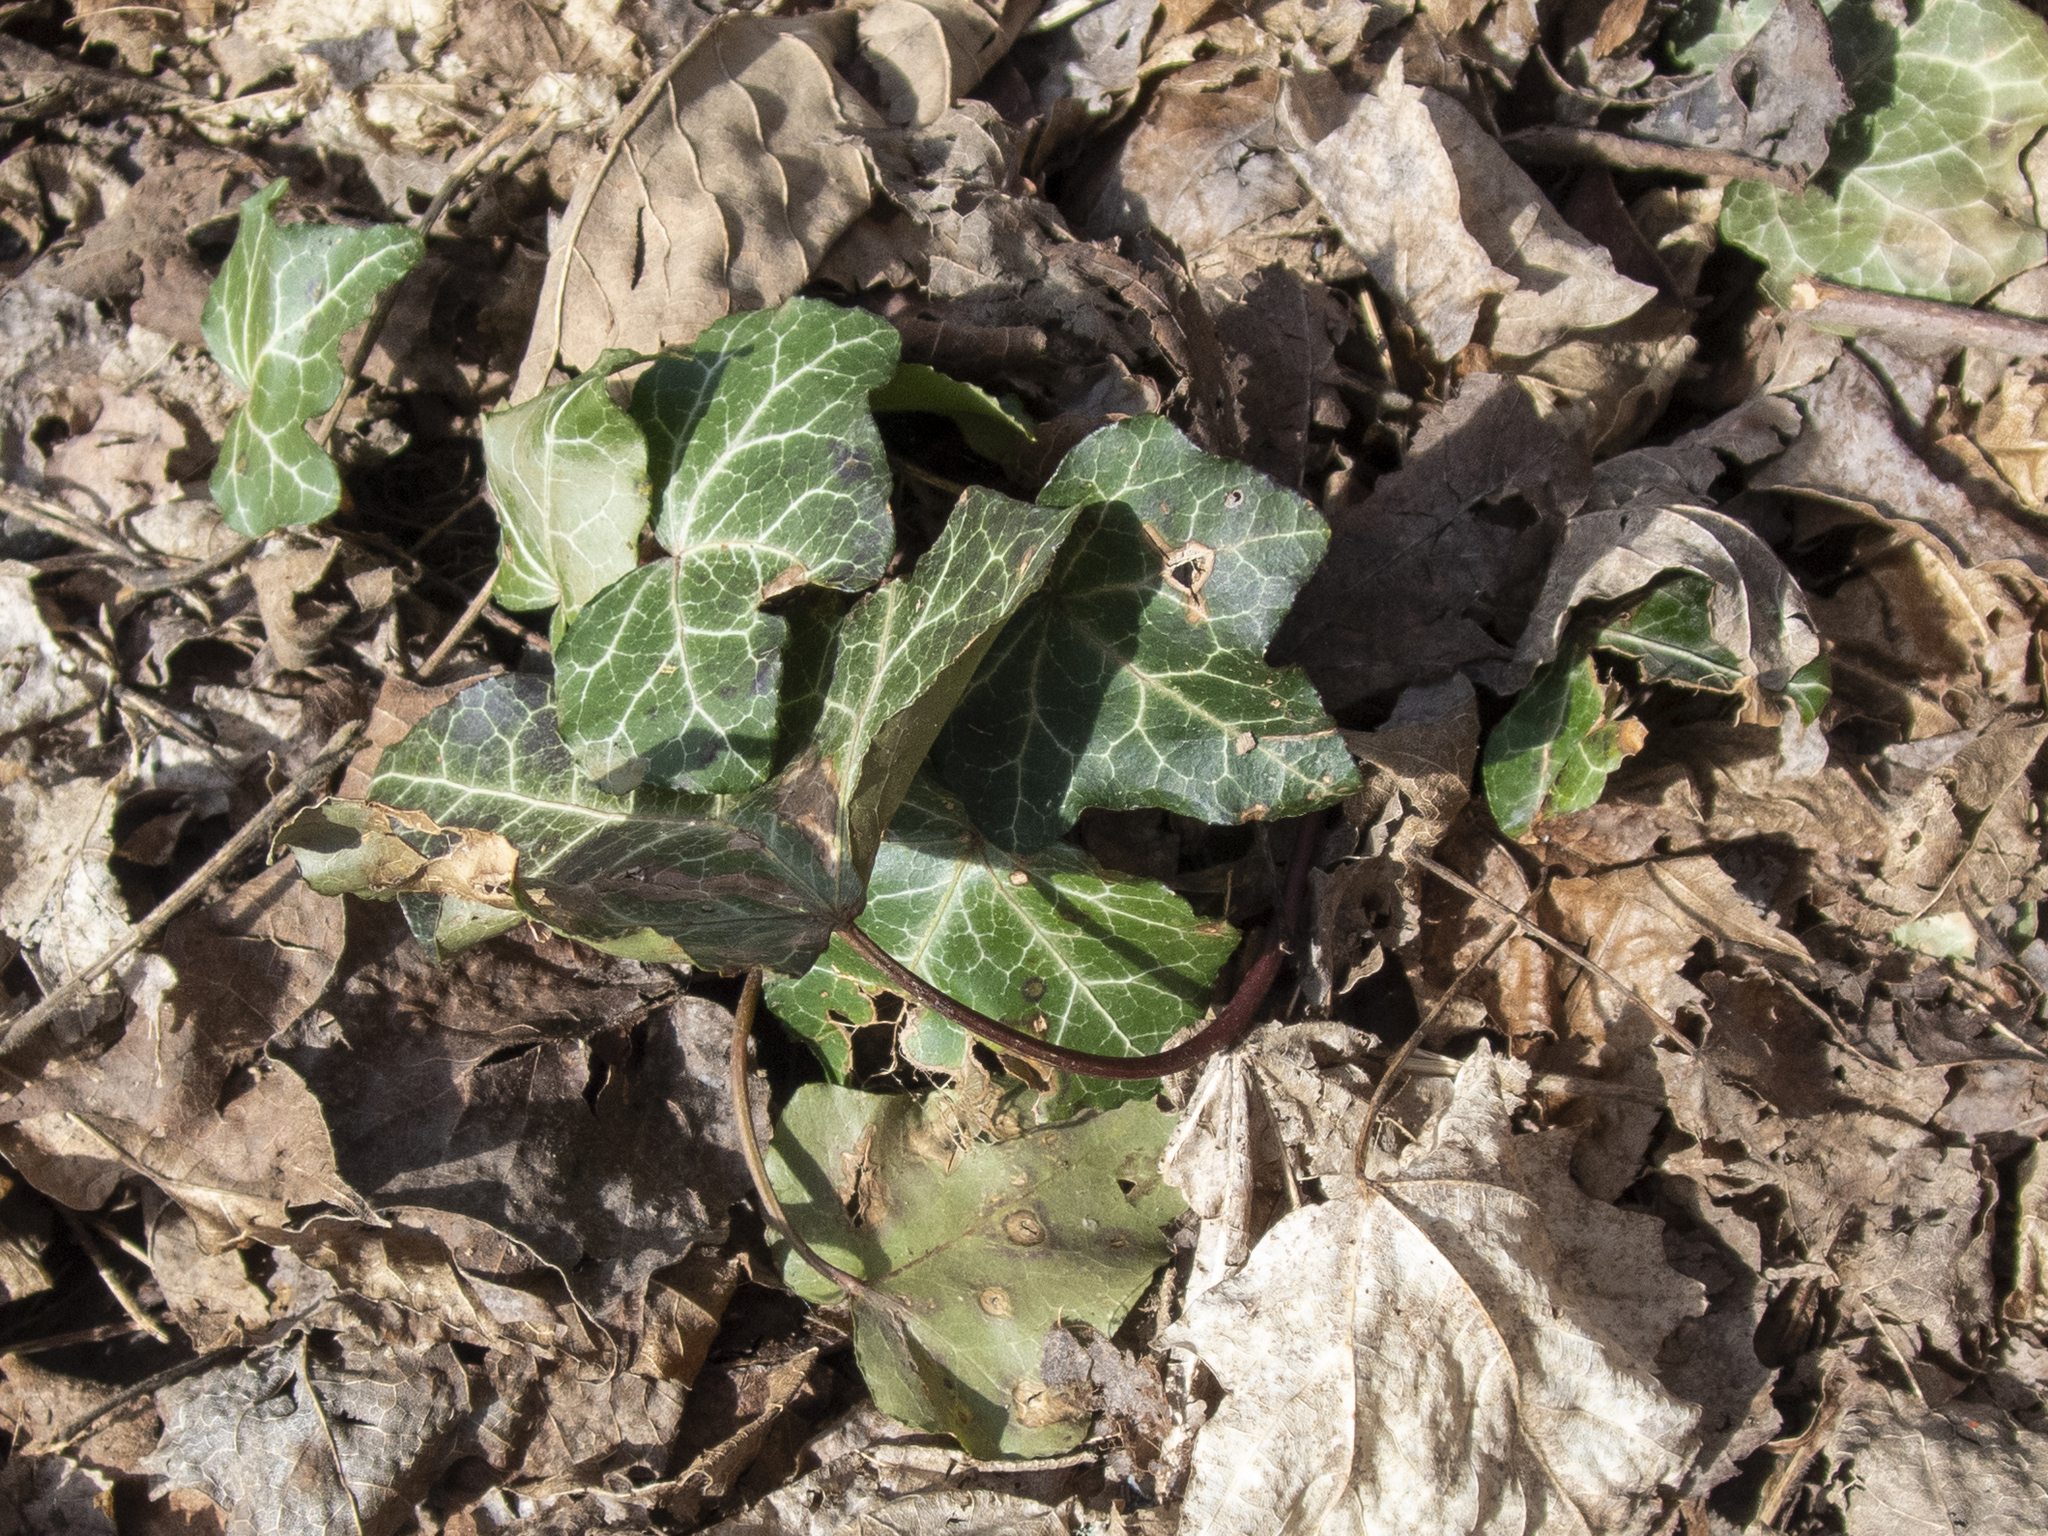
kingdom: Plantae
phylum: Tracheophyta
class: Magnoliopsida
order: Apiales
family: Araliaceae
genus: Hedera
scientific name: Hedera helix
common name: Ivy
